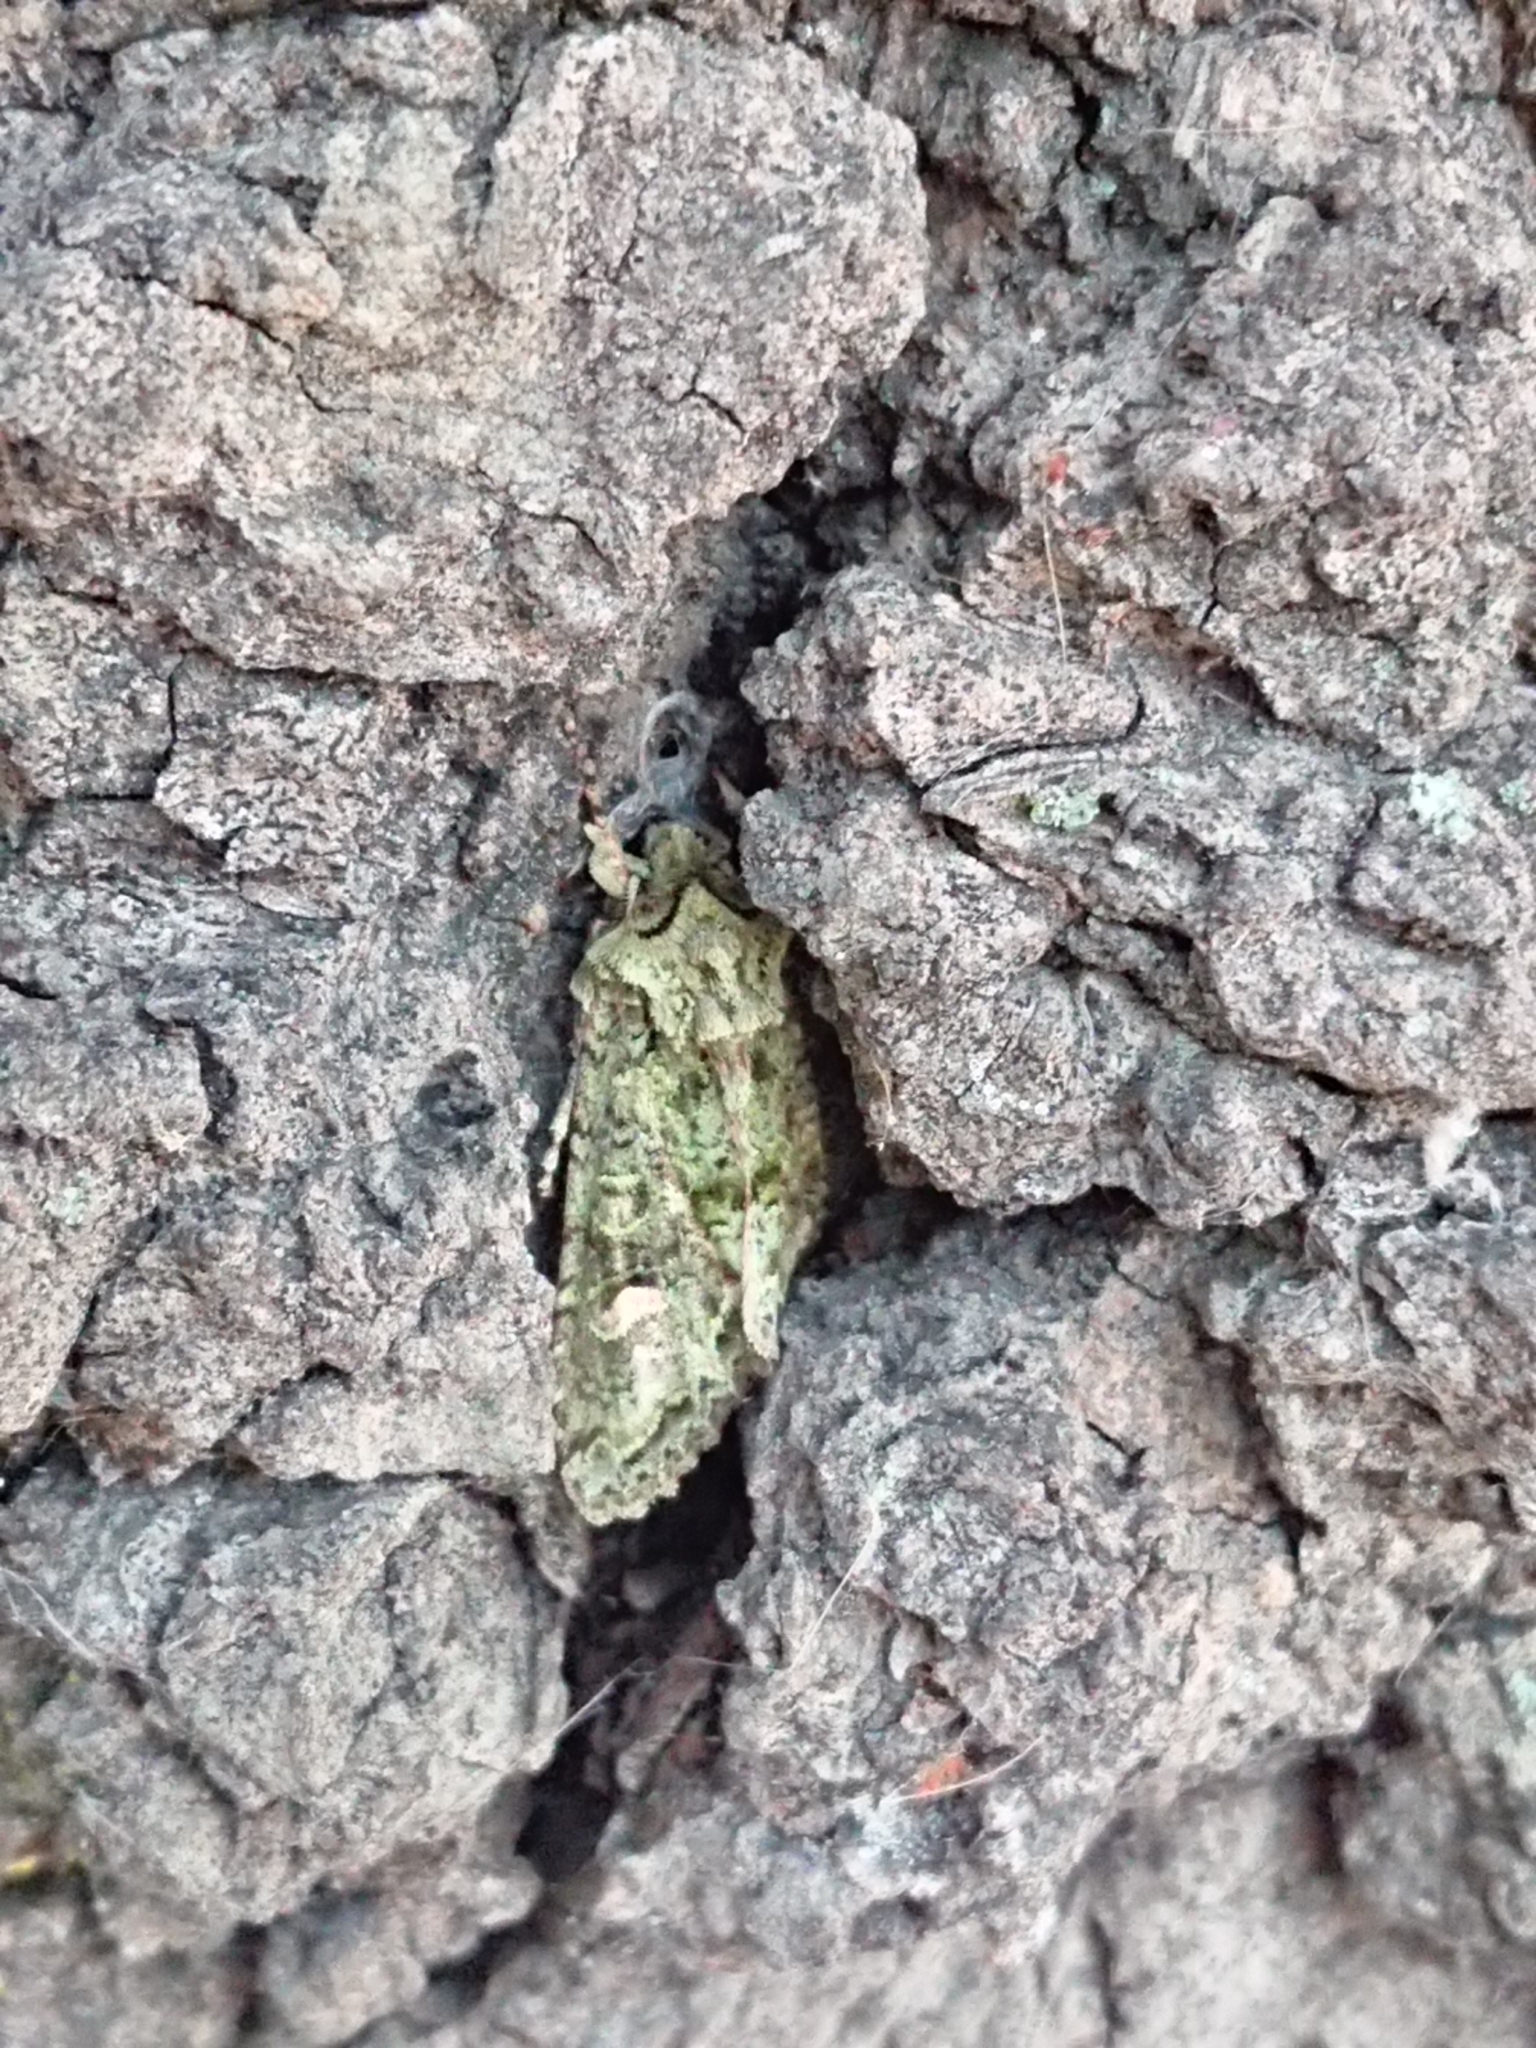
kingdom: Animalia
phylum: Arthropoda
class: Insecta
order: Lepidoptera
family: Noctuidae
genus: Ichneutica
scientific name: Ichneutica
